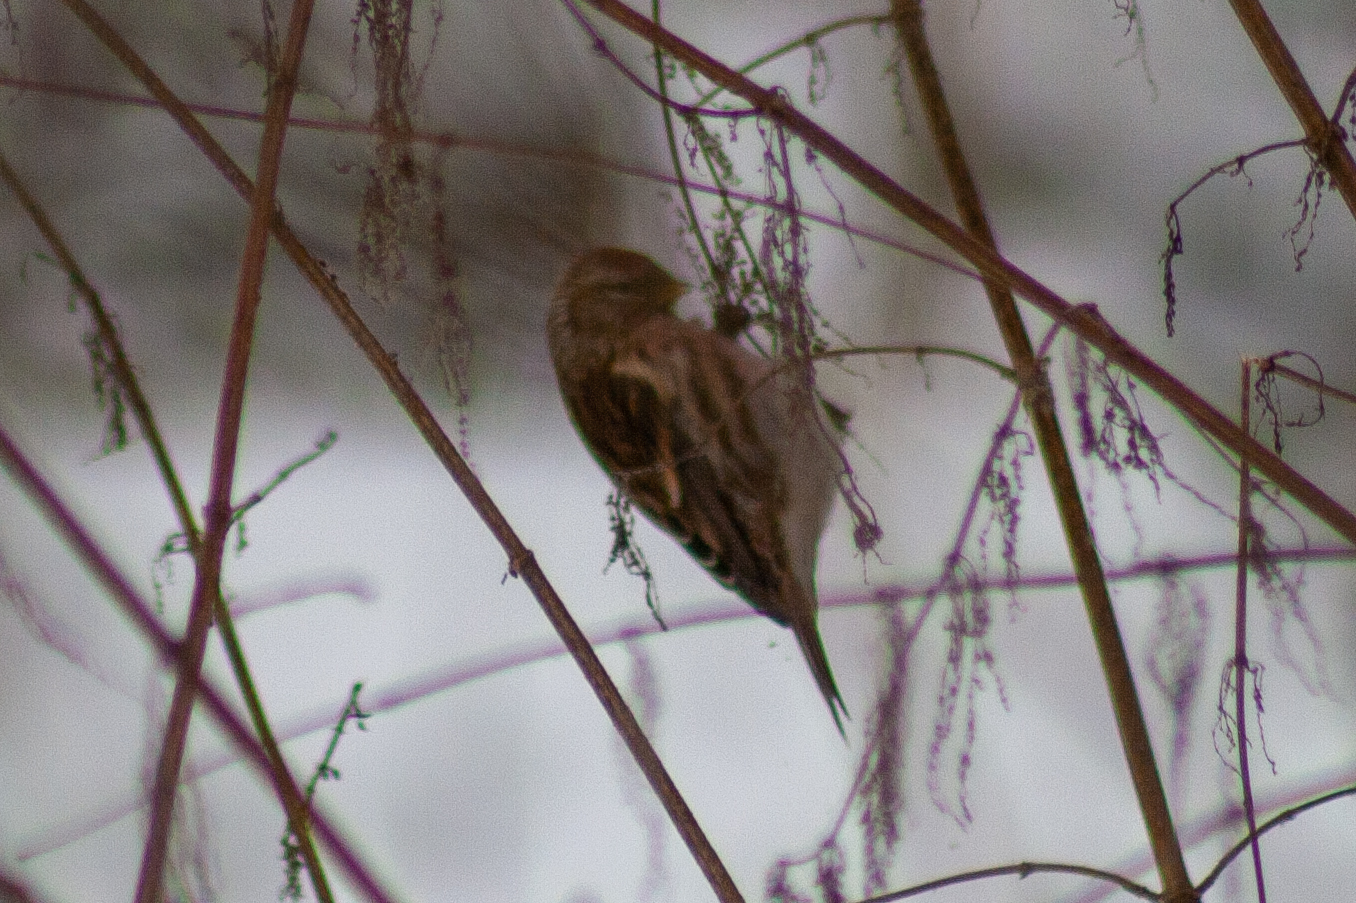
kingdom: Animalia
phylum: Chordata
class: Aves
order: Passeriformes
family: Fringillidae
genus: Acanthis
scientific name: Acanthis flammea
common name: Common redpoll
